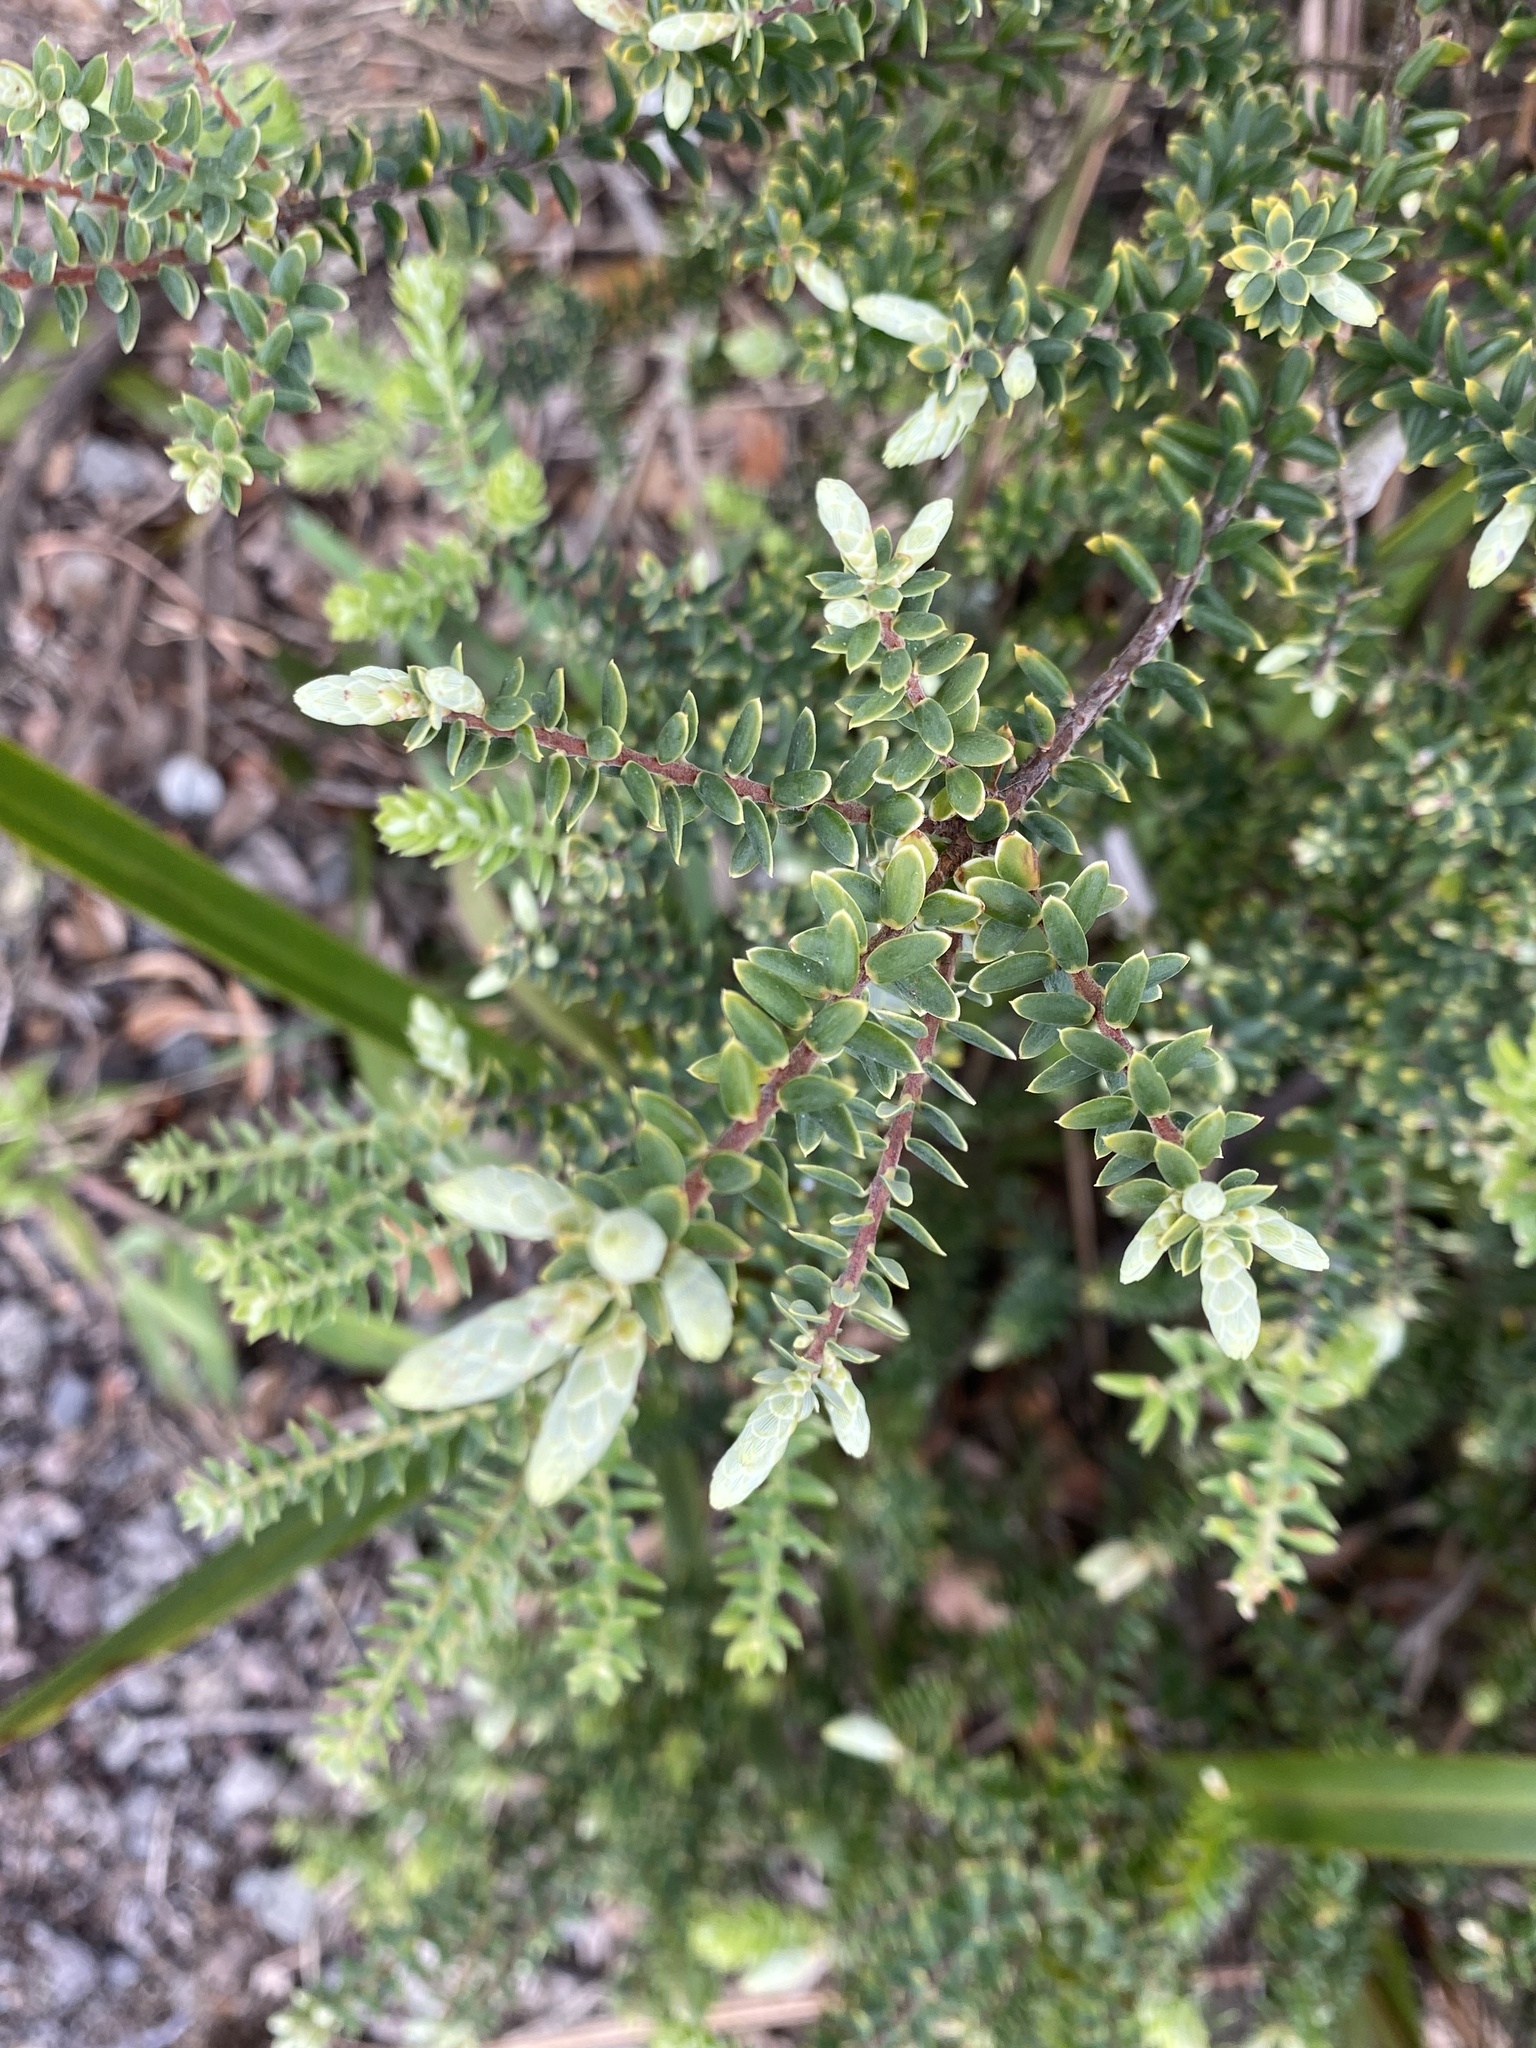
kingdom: Plantae
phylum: Tracheophyta
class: Magnoliopsida
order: Ericales
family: Ericaceae
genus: Leptecophylla
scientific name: Leptecophylla tameiameiae
